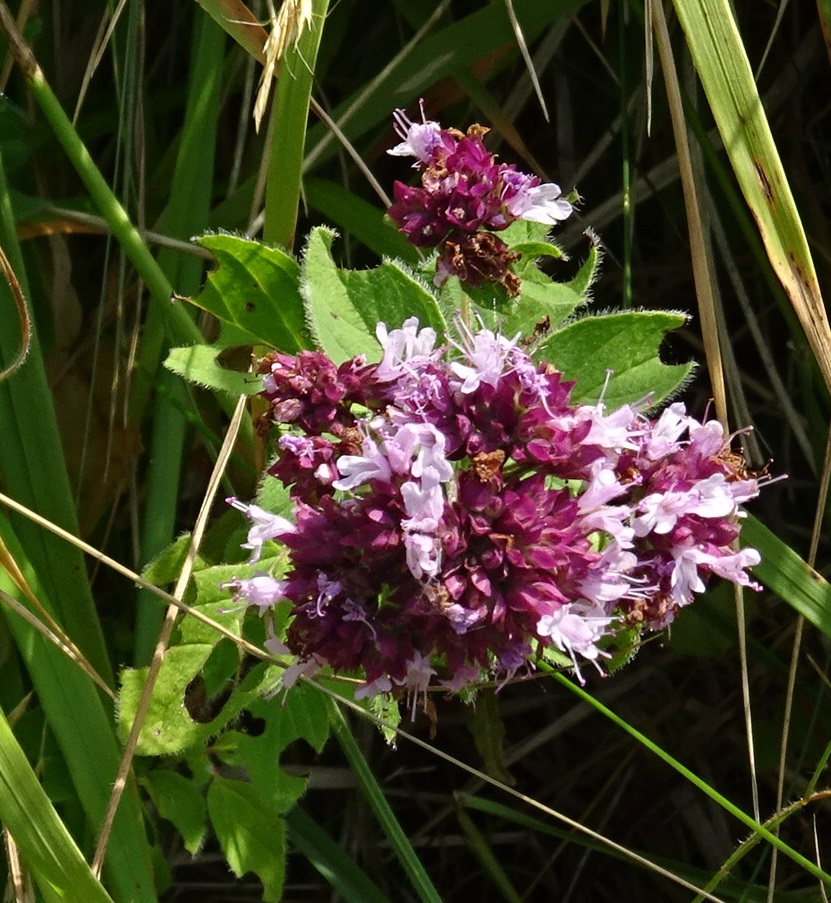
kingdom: Plantae
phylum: Tracheophyta
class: Magnoliopsida
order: Lamiales
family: Lamiaceae
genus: Origanum
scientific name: Origanum vulgare
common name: Wild marjoram
